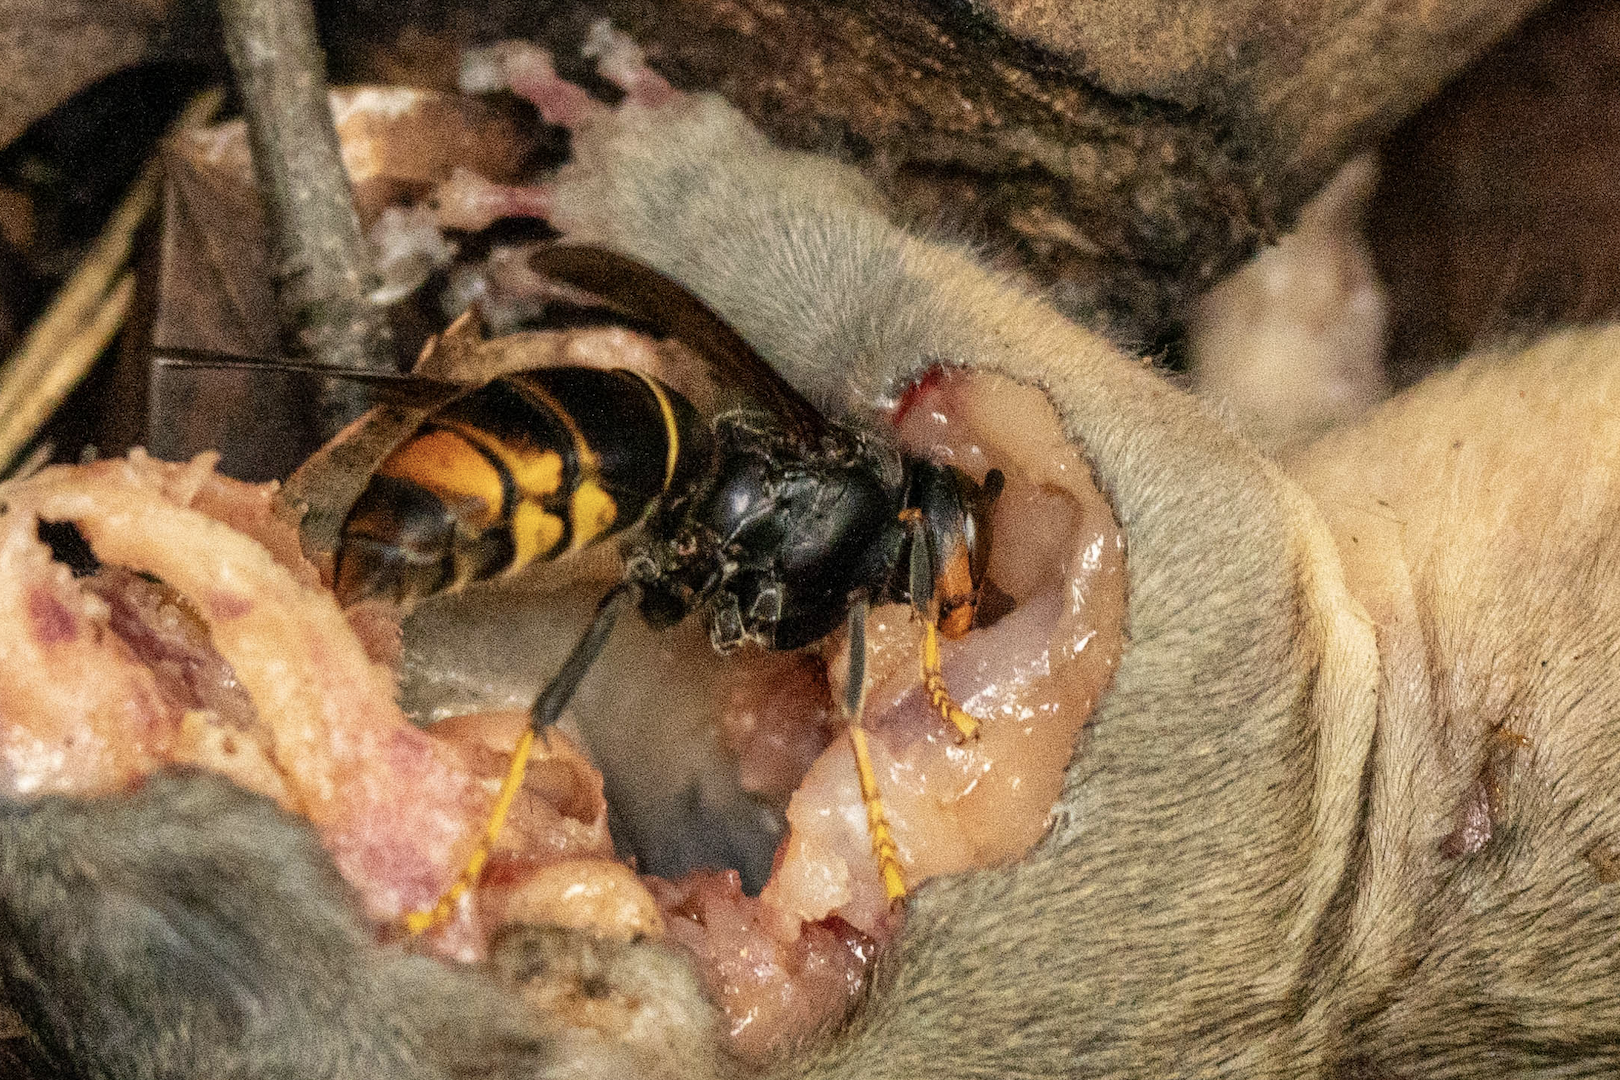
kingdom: Animalia
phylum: Arthropoda
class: Insecta
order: Hymenoptera
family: Vespidae
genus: Vespa
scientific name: Vespa velutina
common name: Asian hornet
